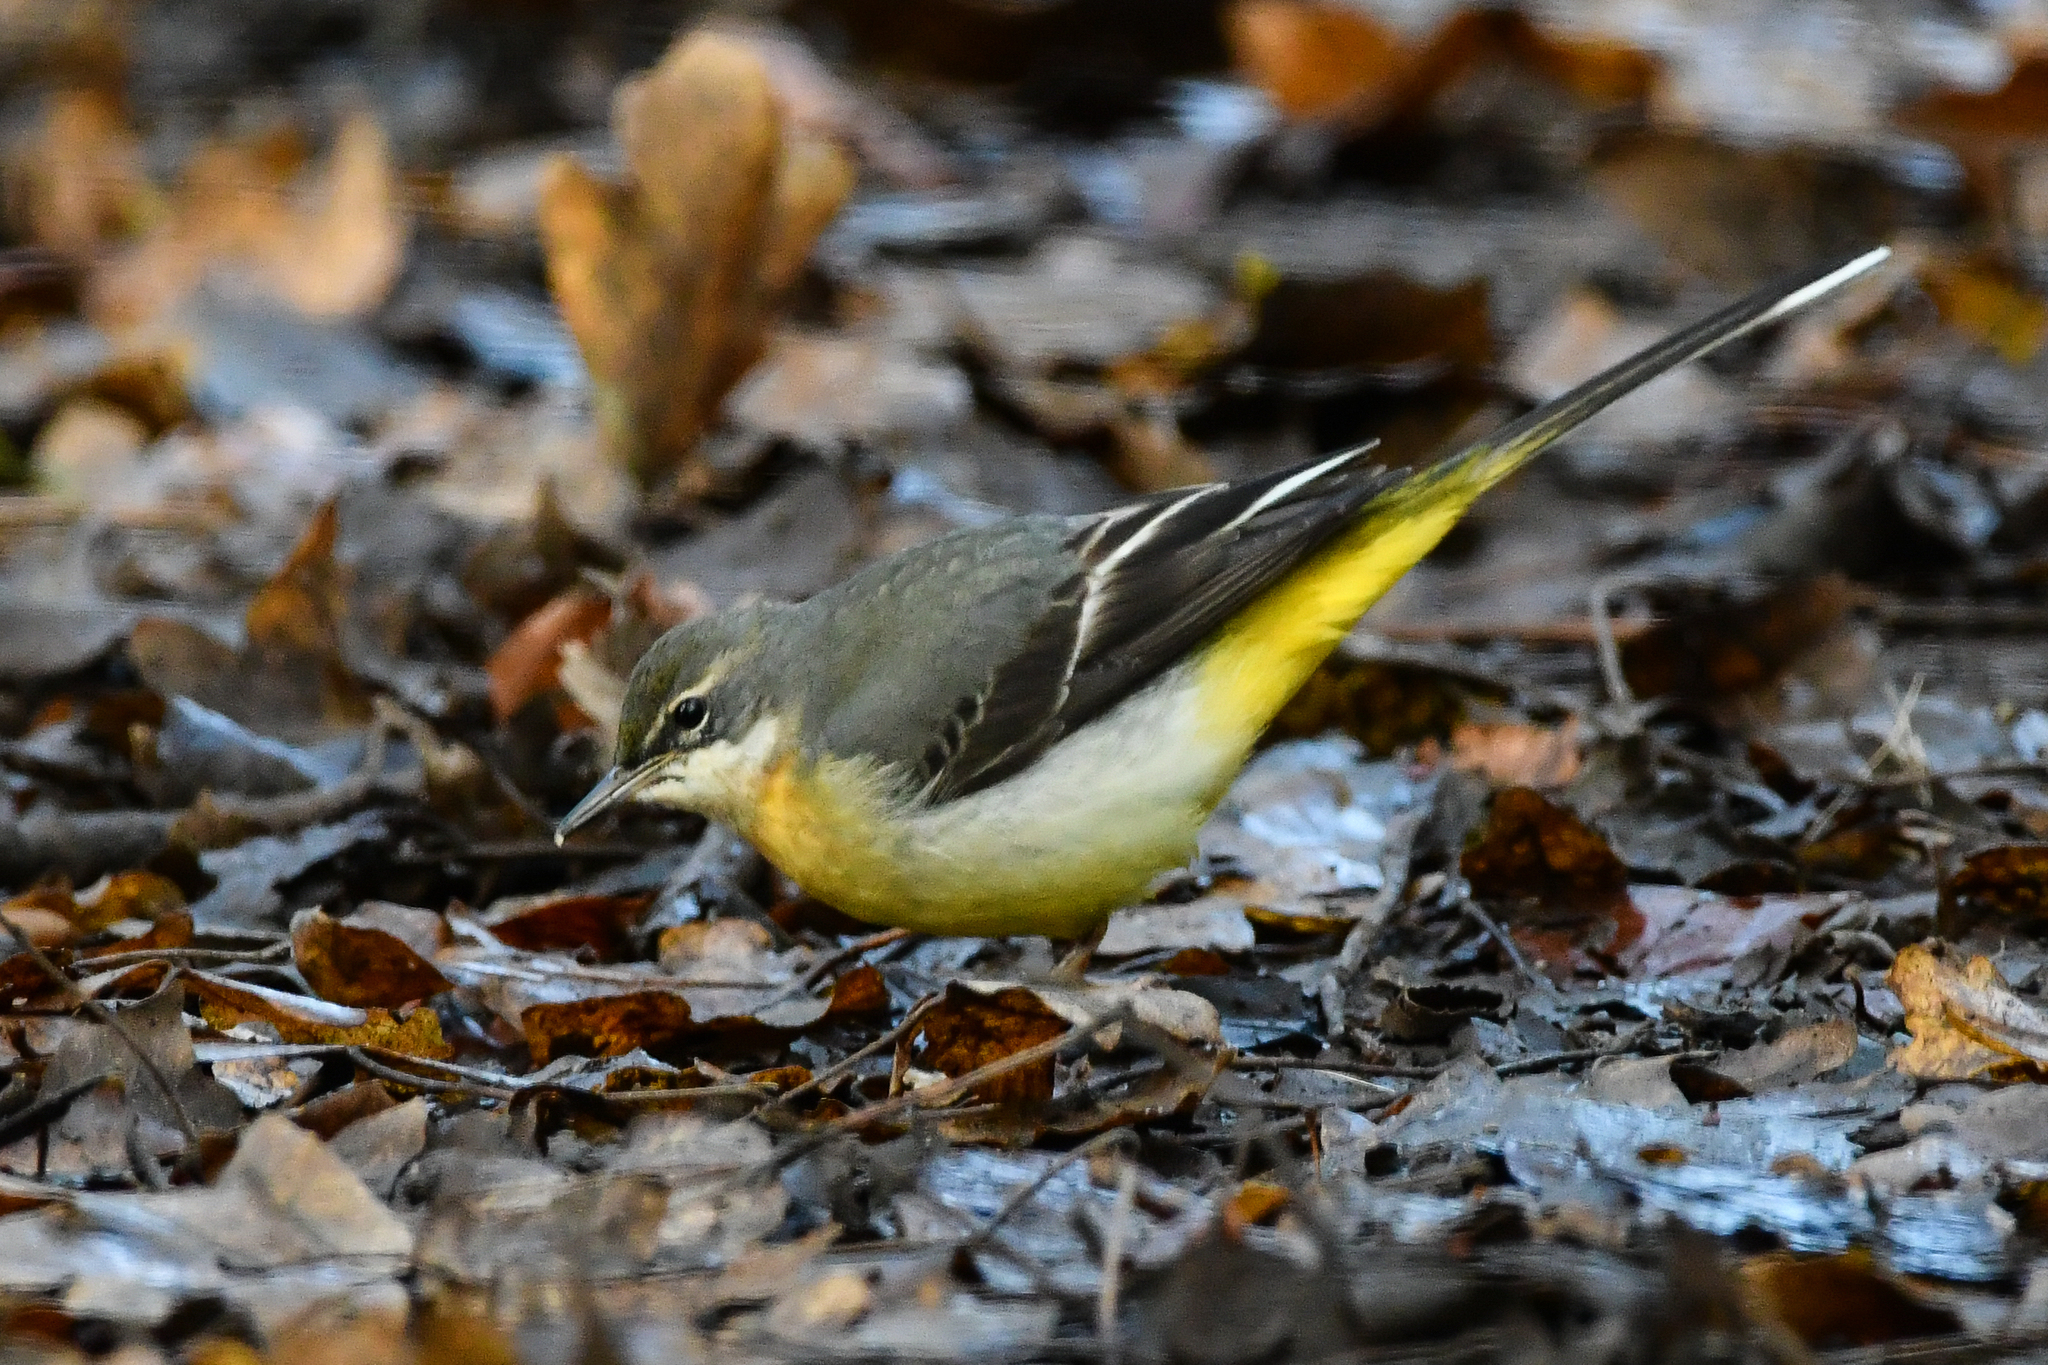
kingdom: Animalia
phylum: Chordata
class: Aves
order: Passeriformes
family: Motacillidae
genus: Motacilla
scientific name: Motacilla cinerea
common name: Grey wagtail
